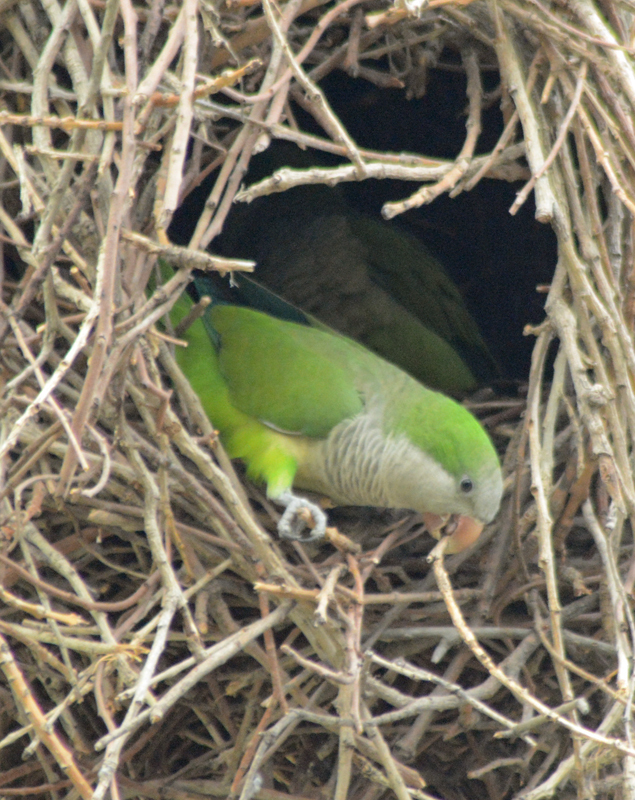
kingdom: Animalia
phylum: Chordata
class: Aves
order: Psittaciformes
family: Psittacidae
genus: Myiopsitta
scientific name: Myiopsitta monachus
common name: Monk parakeet
